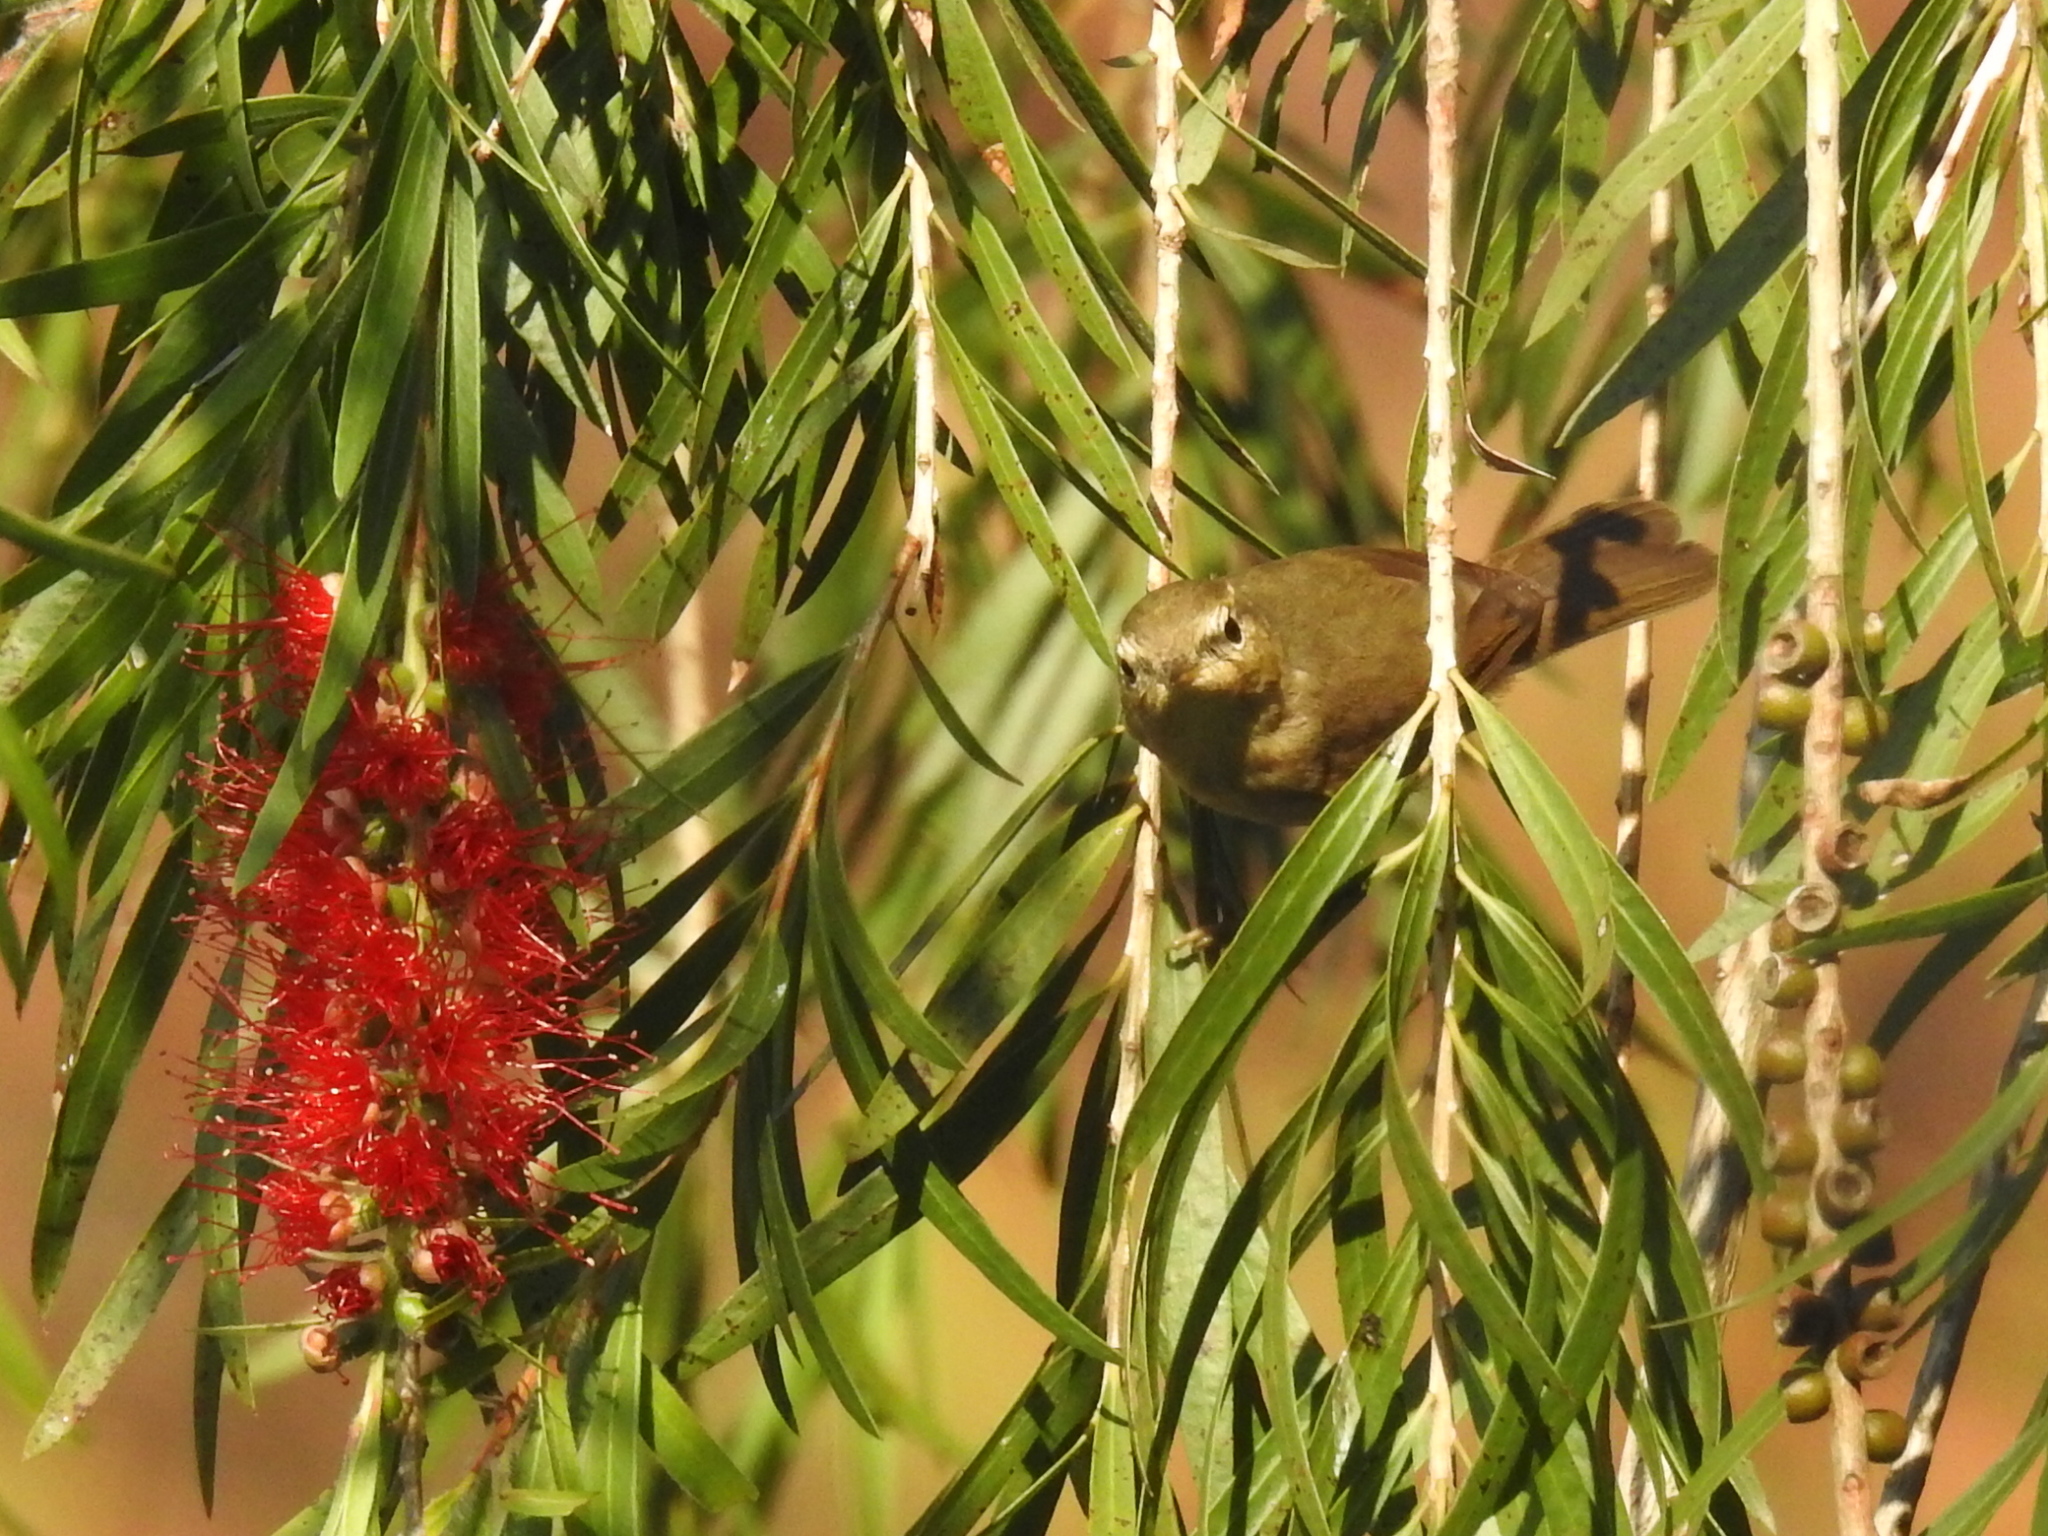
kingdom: Animalia
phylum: Chordata
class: Aves
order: Passeriformes
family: Phylloscopidae
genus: Phylloscopus
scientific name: Phylloscopus fuscatus
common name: Dusky warbler
